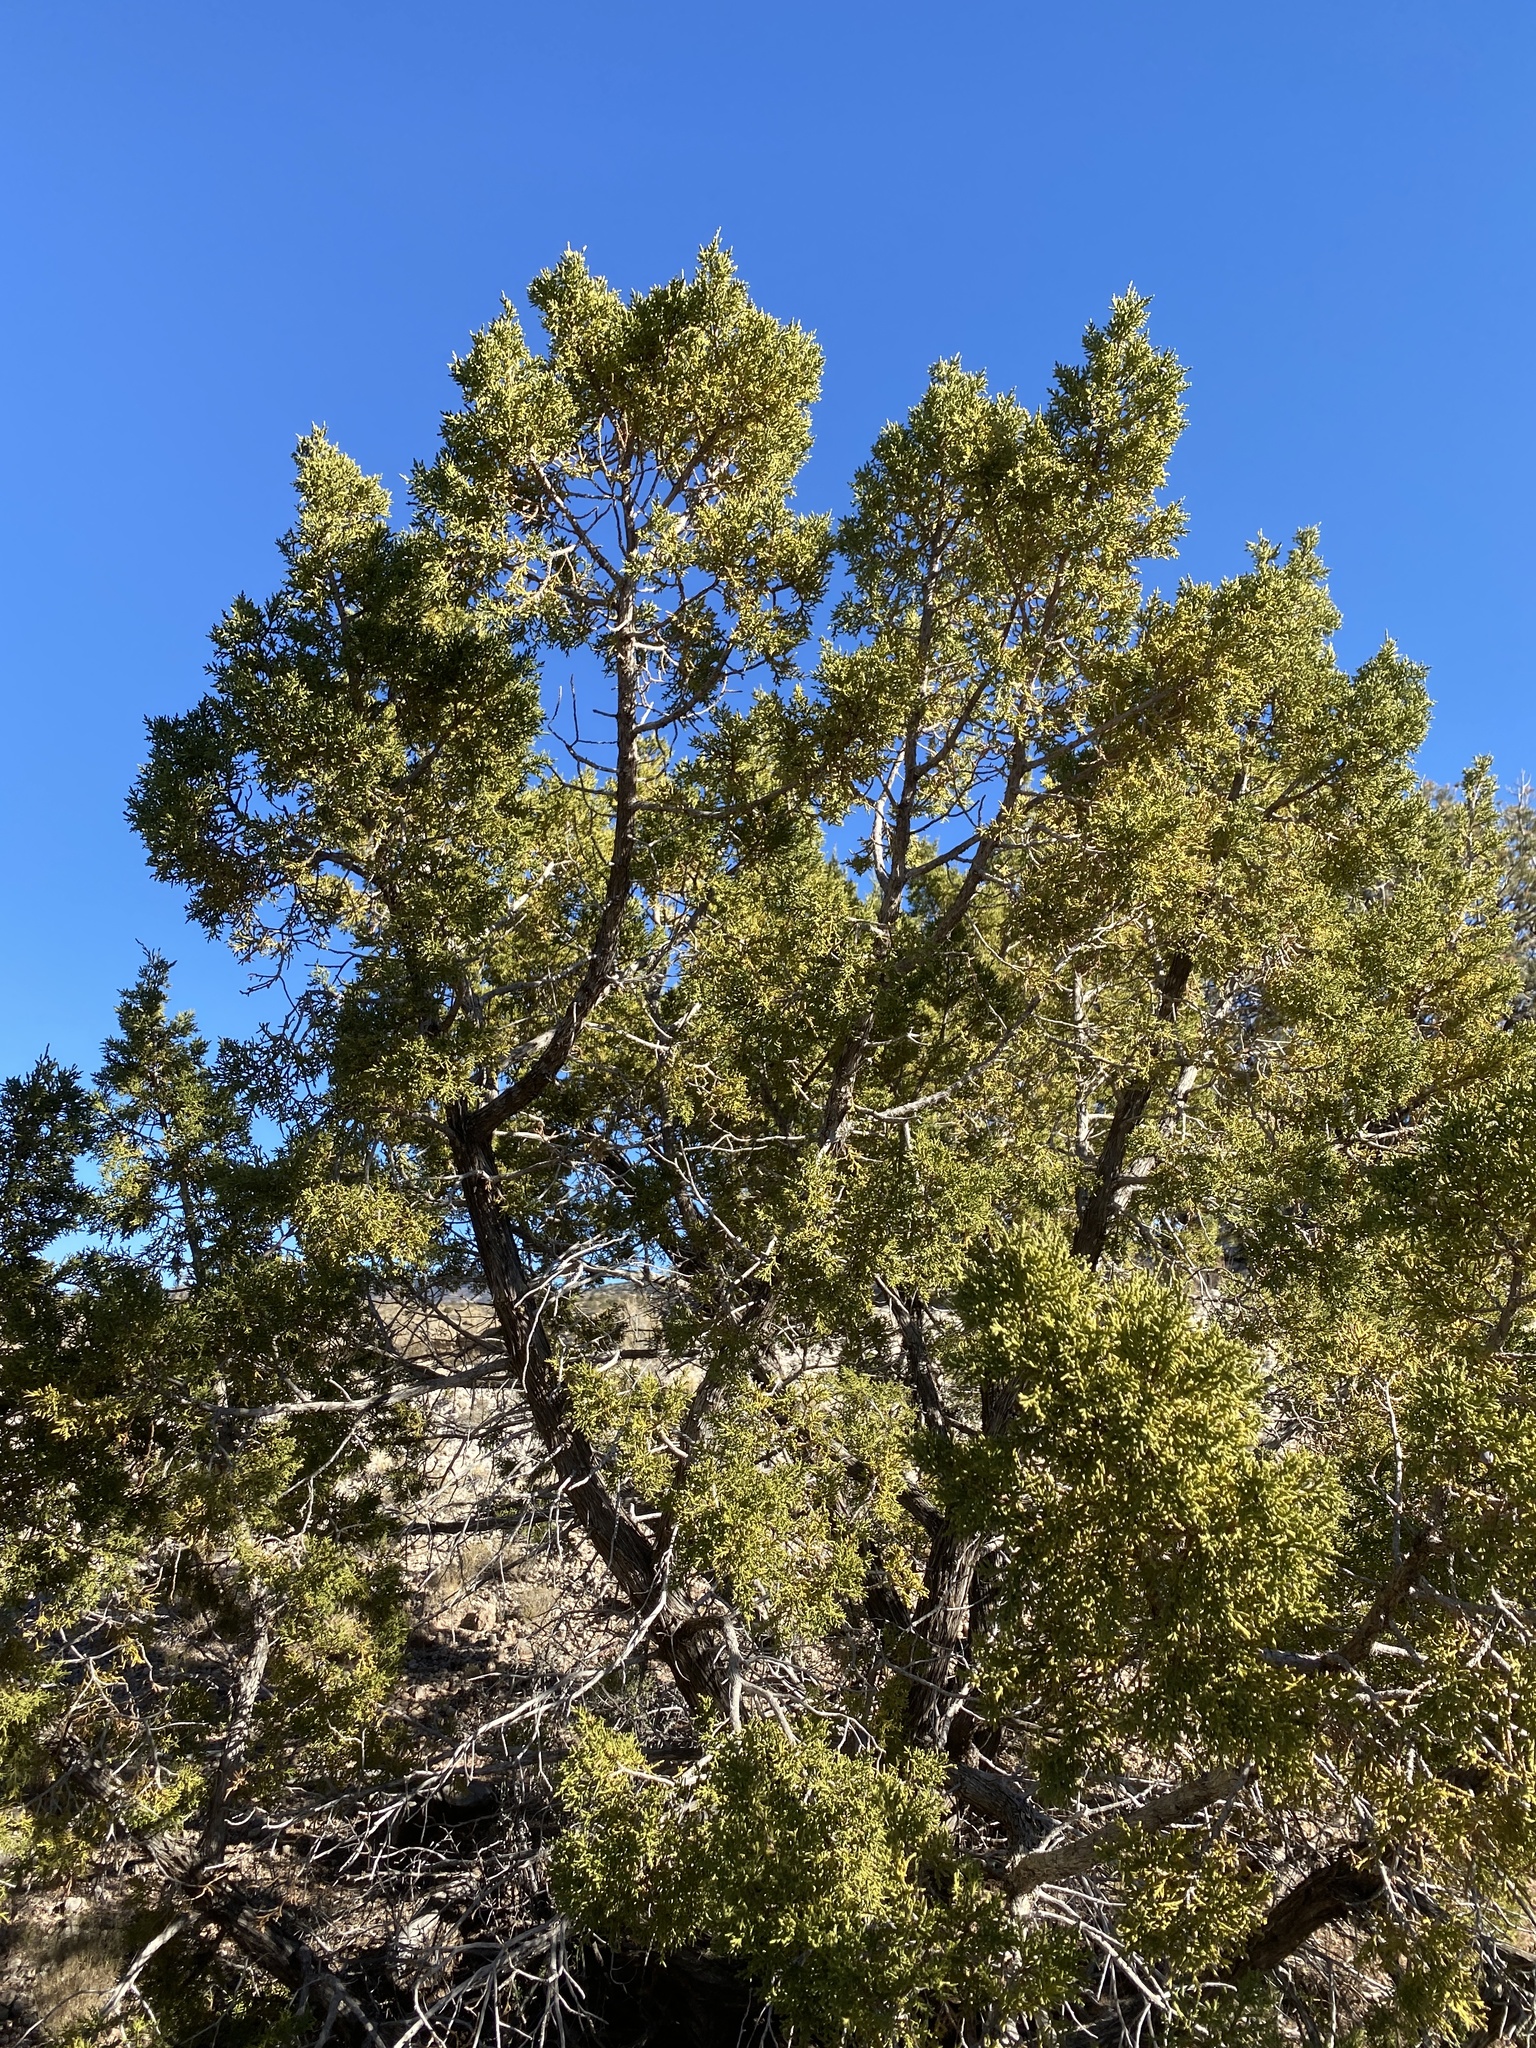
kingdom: Plantae
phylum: Tracheophyta
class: Pinopsida
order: Pinales
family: Cupressaceae
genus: Juniperus
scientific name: Juniperus monosperma
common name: One-seed juniper
